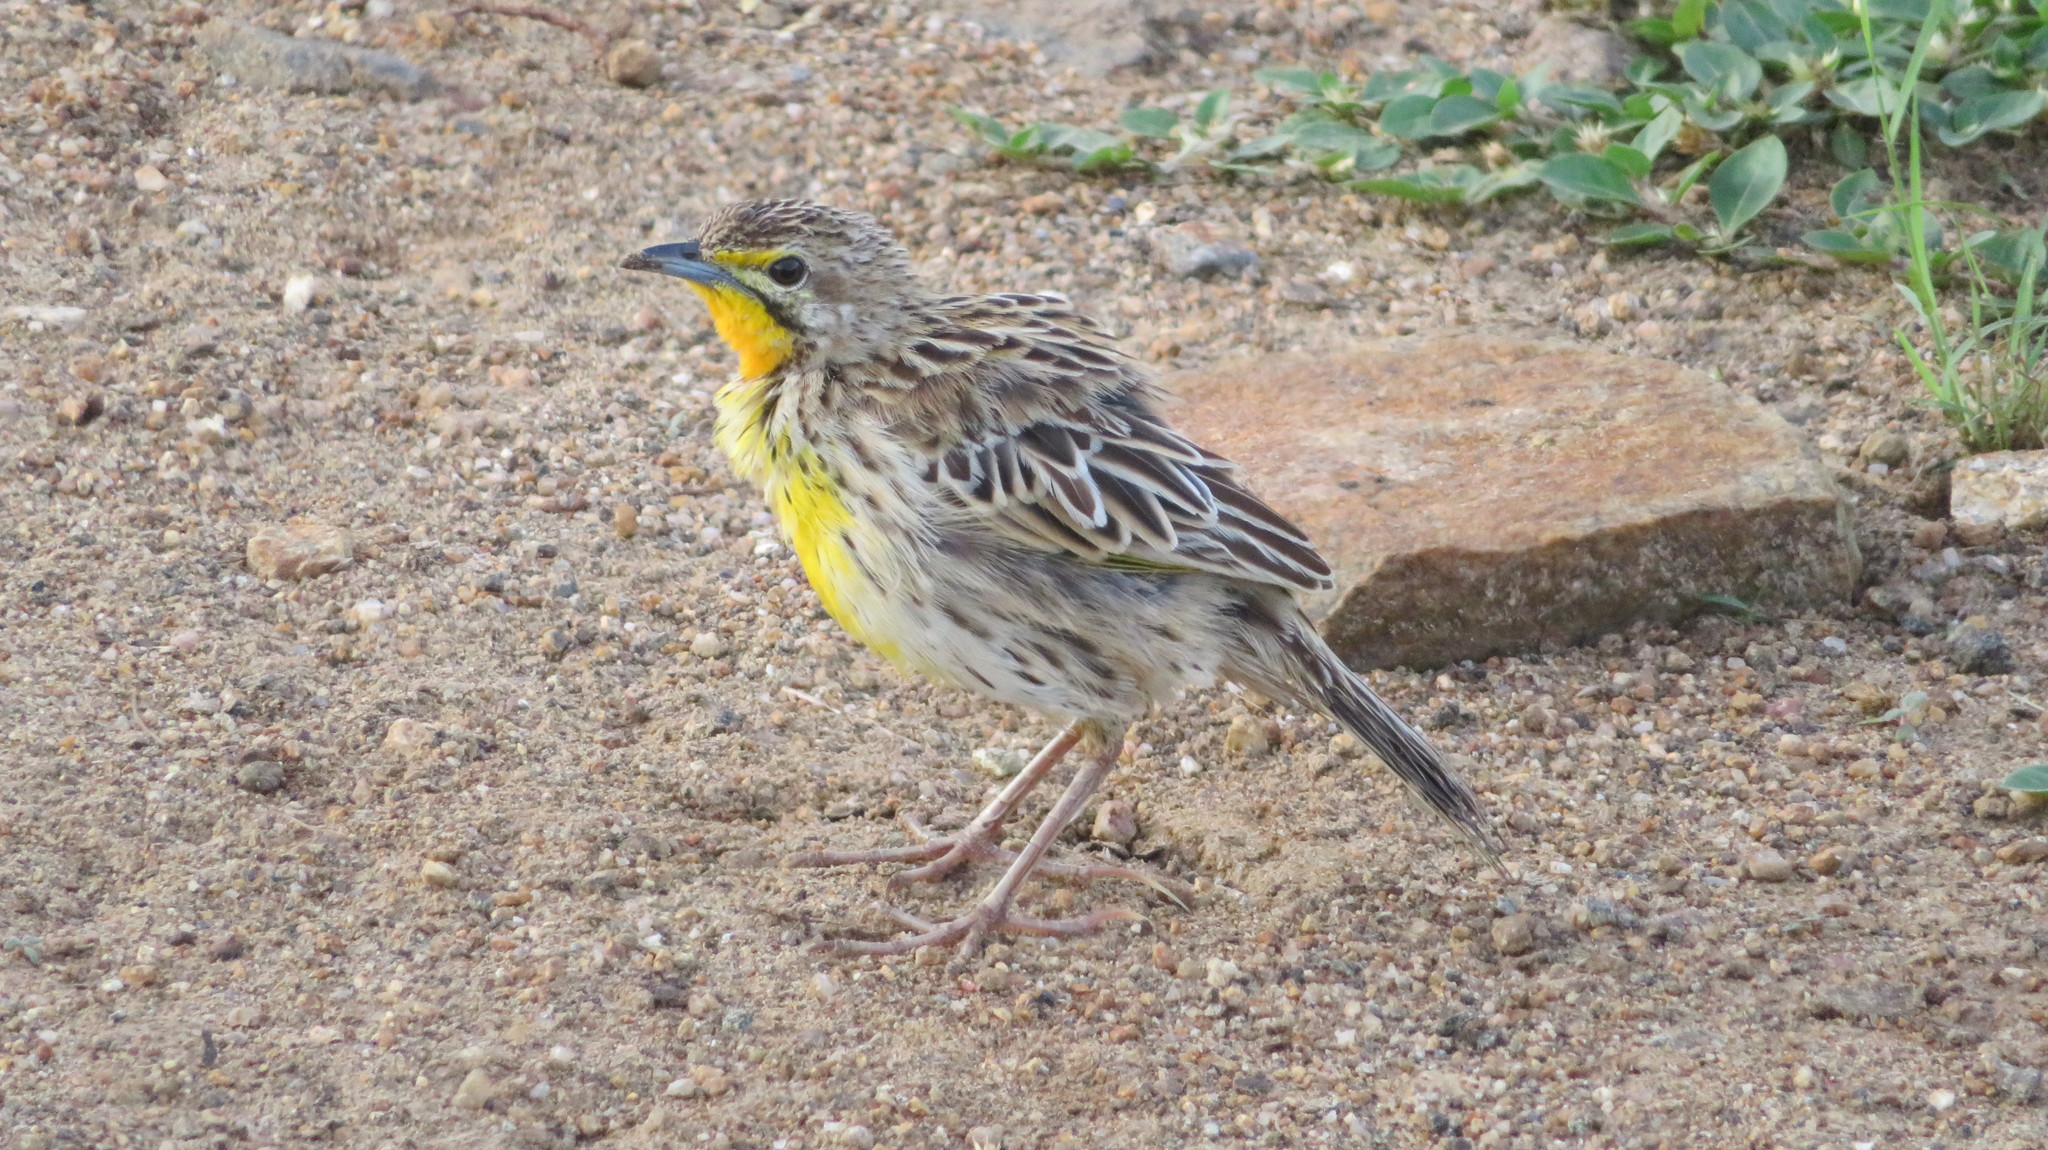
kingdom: Animalia
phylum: Chordata
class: Aves
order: Passeriformes
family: Motacillidae
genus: Macronyx
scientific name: Macronyx aurantiigula
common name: Pangani longclaw
